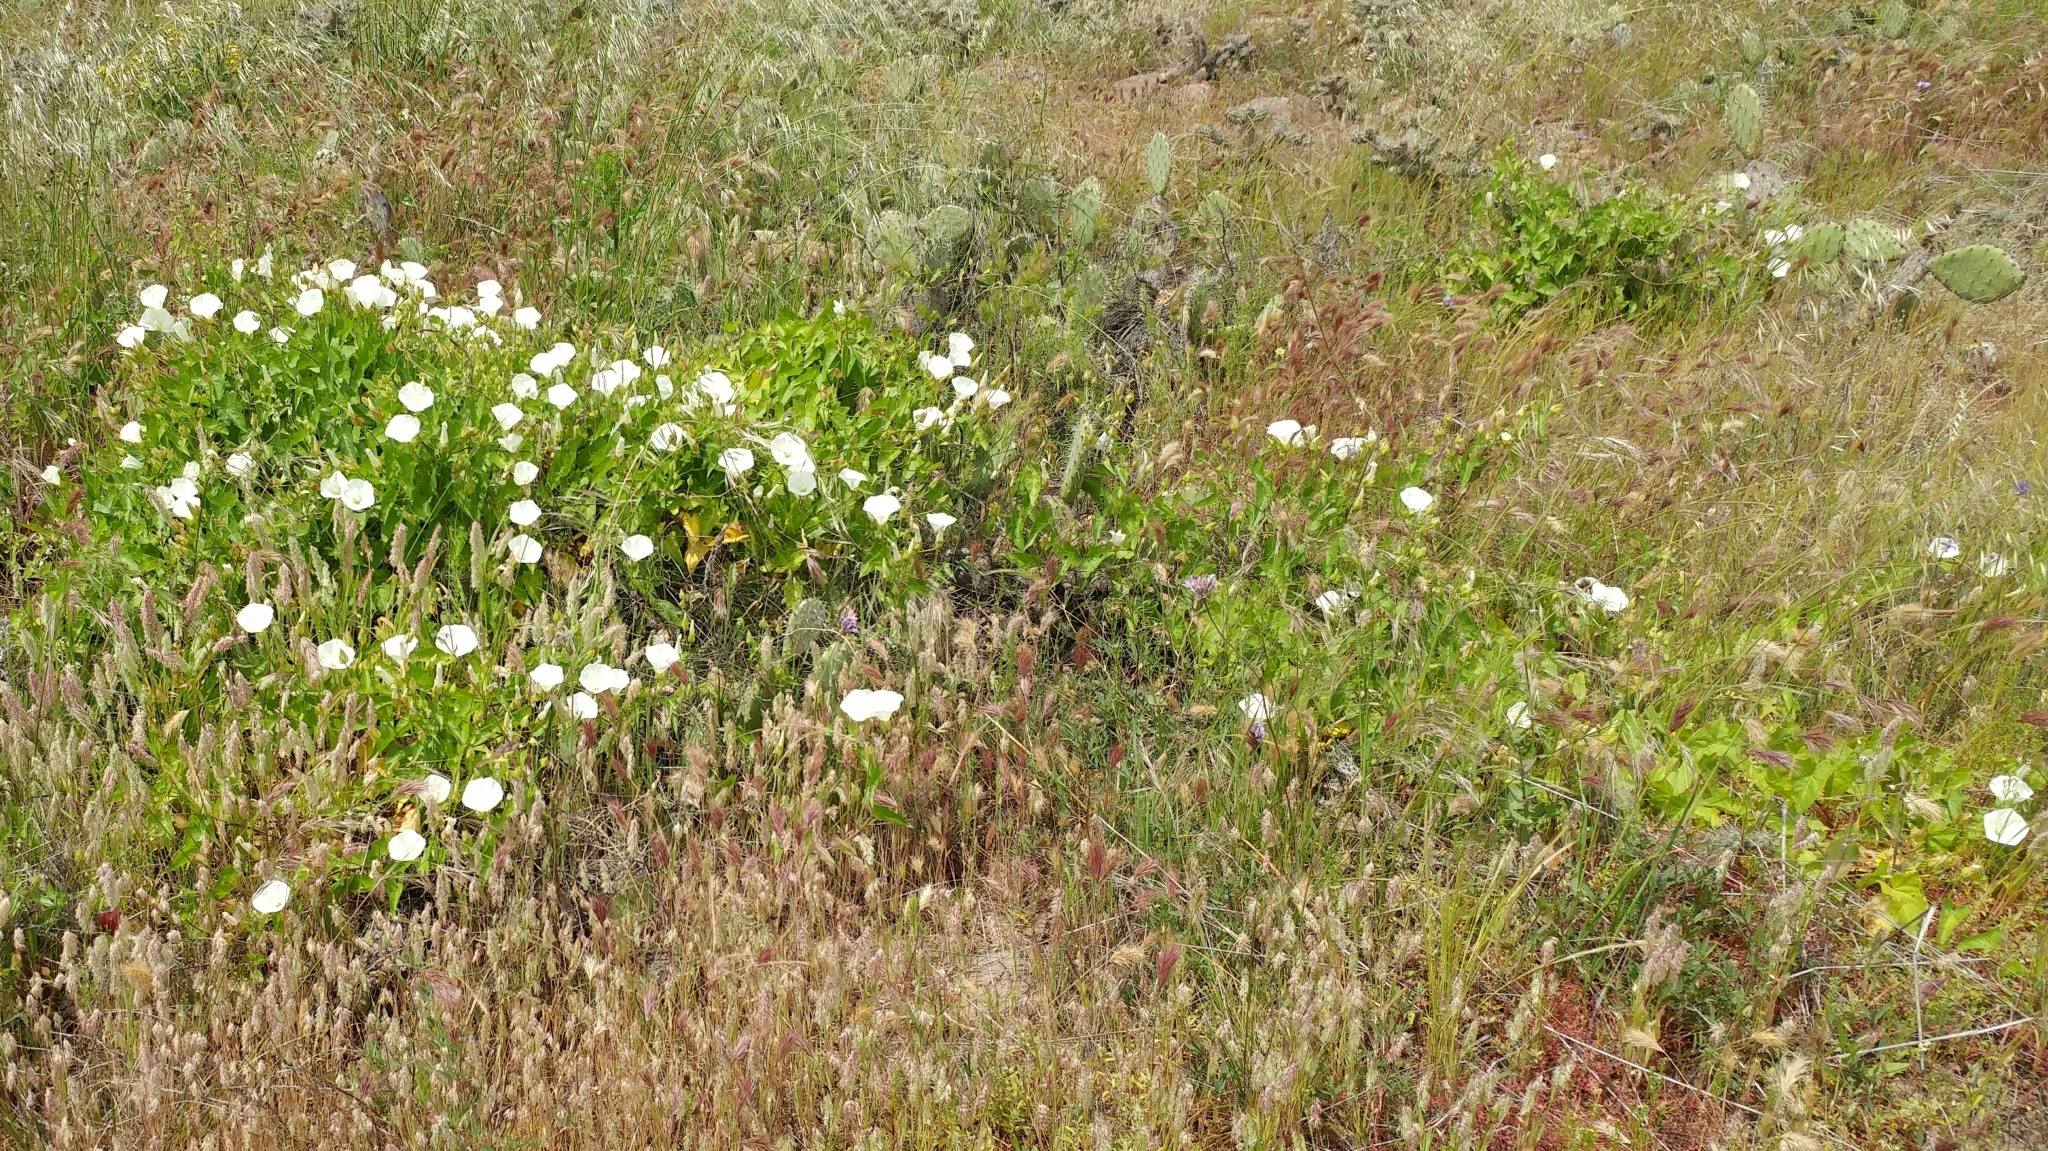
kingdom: Plantae
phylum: Tracheophyta
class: Magnoliopsida
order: Solanales
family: Convolvulaceae
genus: Calystegia
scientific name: Calystegia macrostegia
